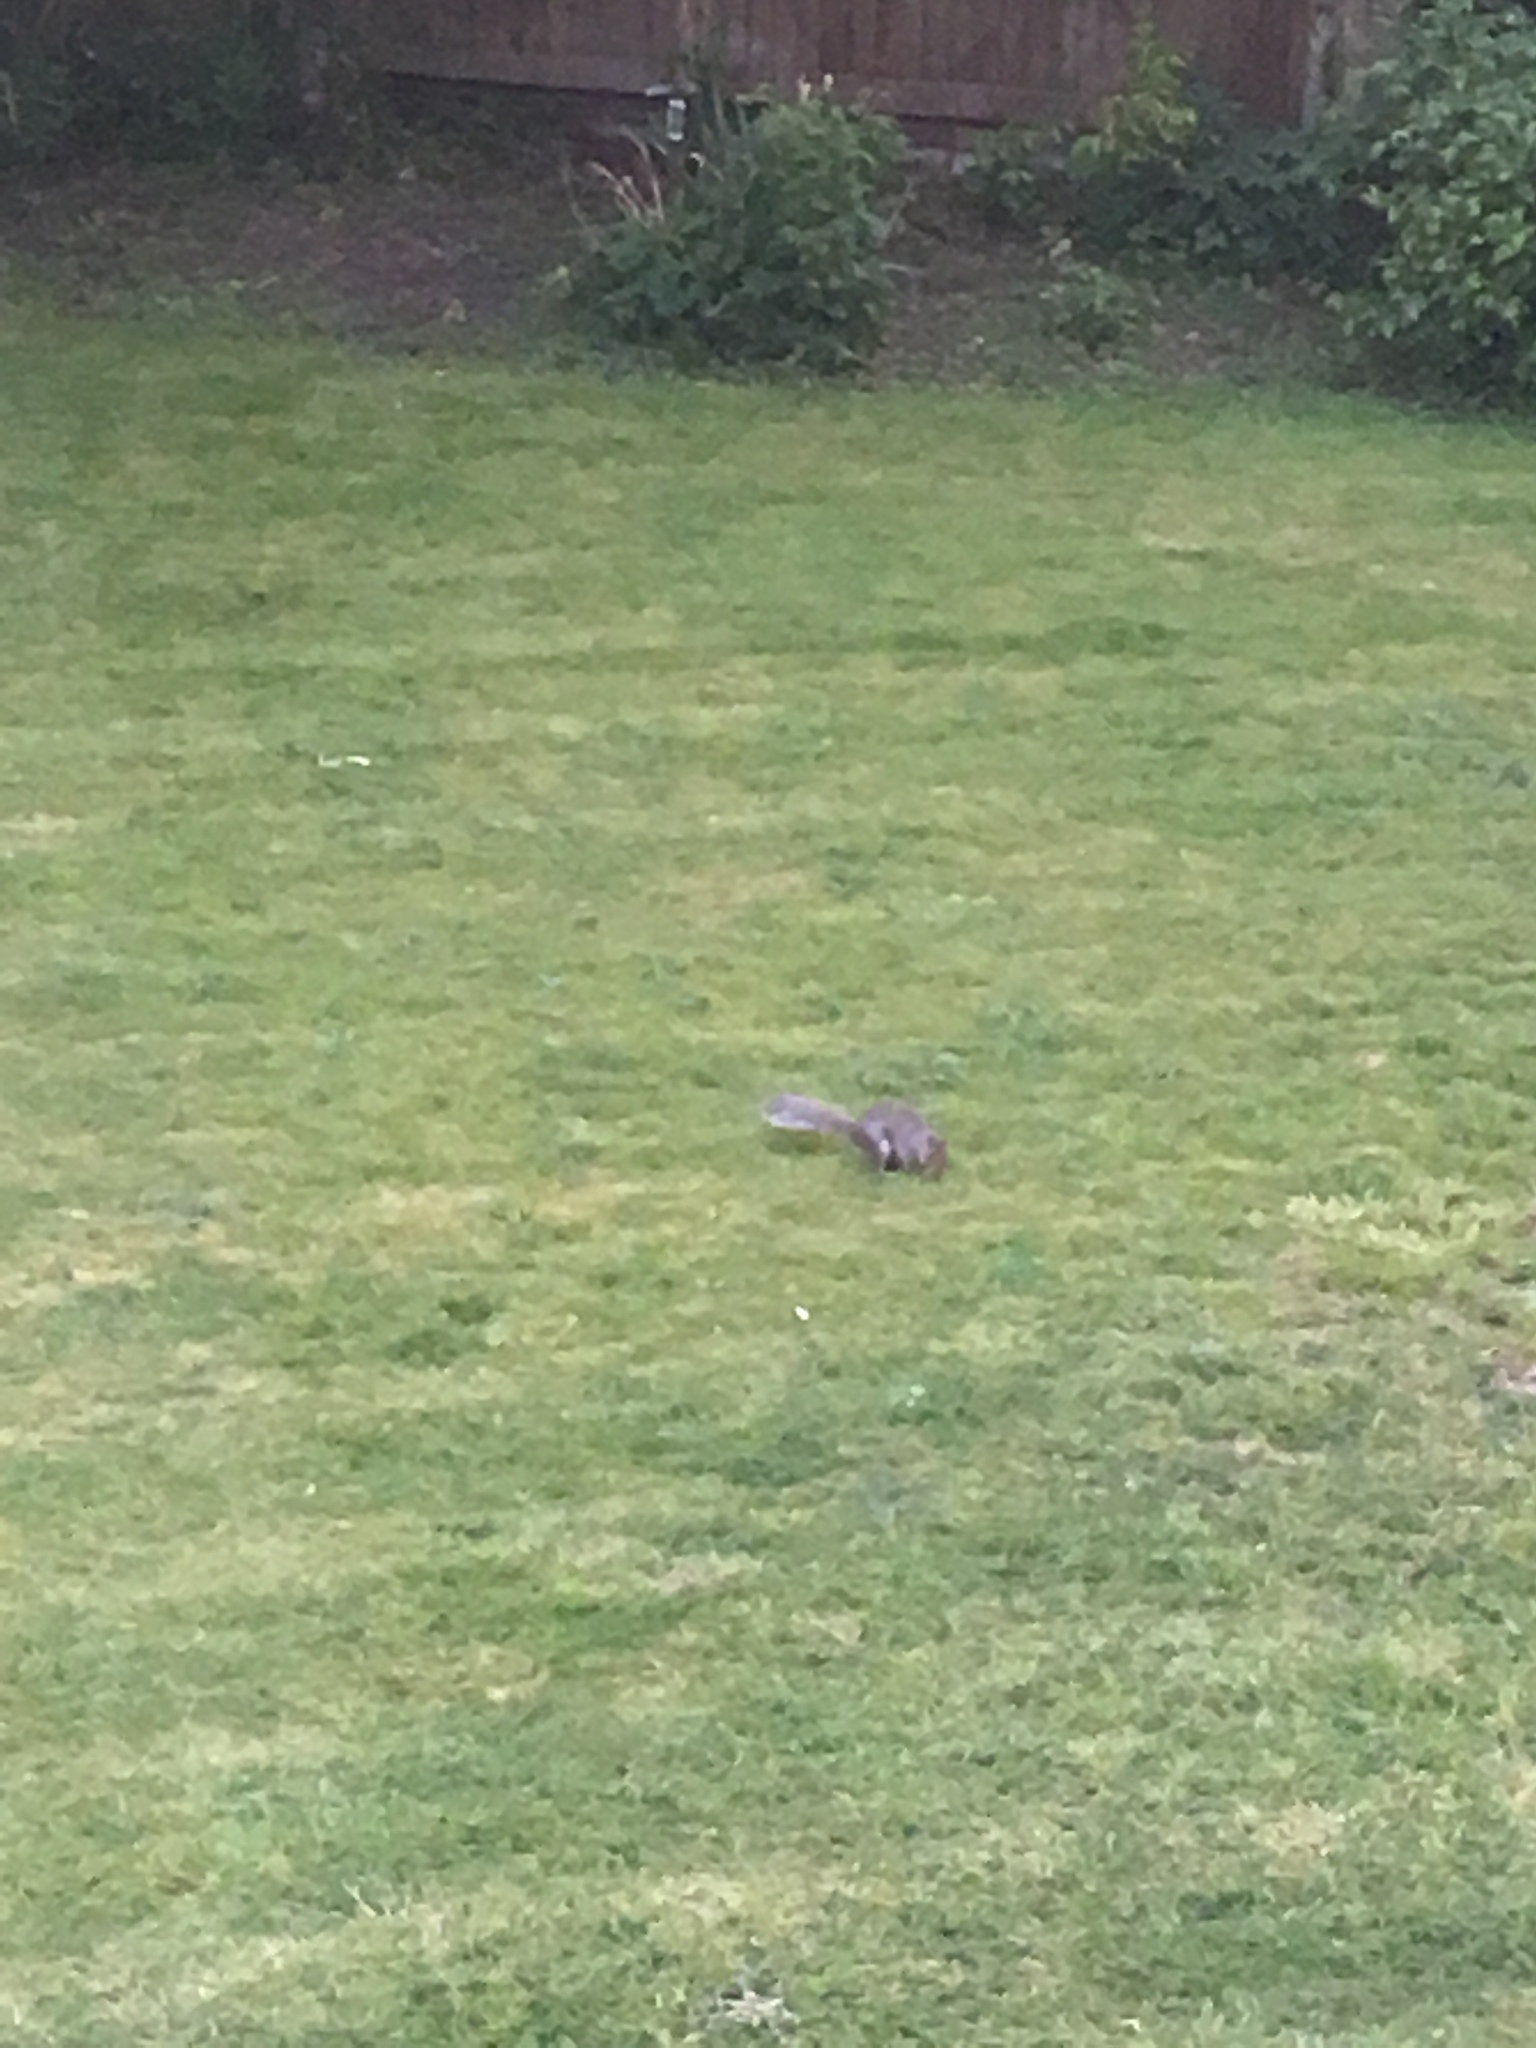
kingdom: Animalia
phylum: Chordata
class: Mammalia
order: Rodentia
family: Sciuridae
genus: Sciurus
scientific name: Sciurus carolinensis
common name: Eastern gray squirrel
